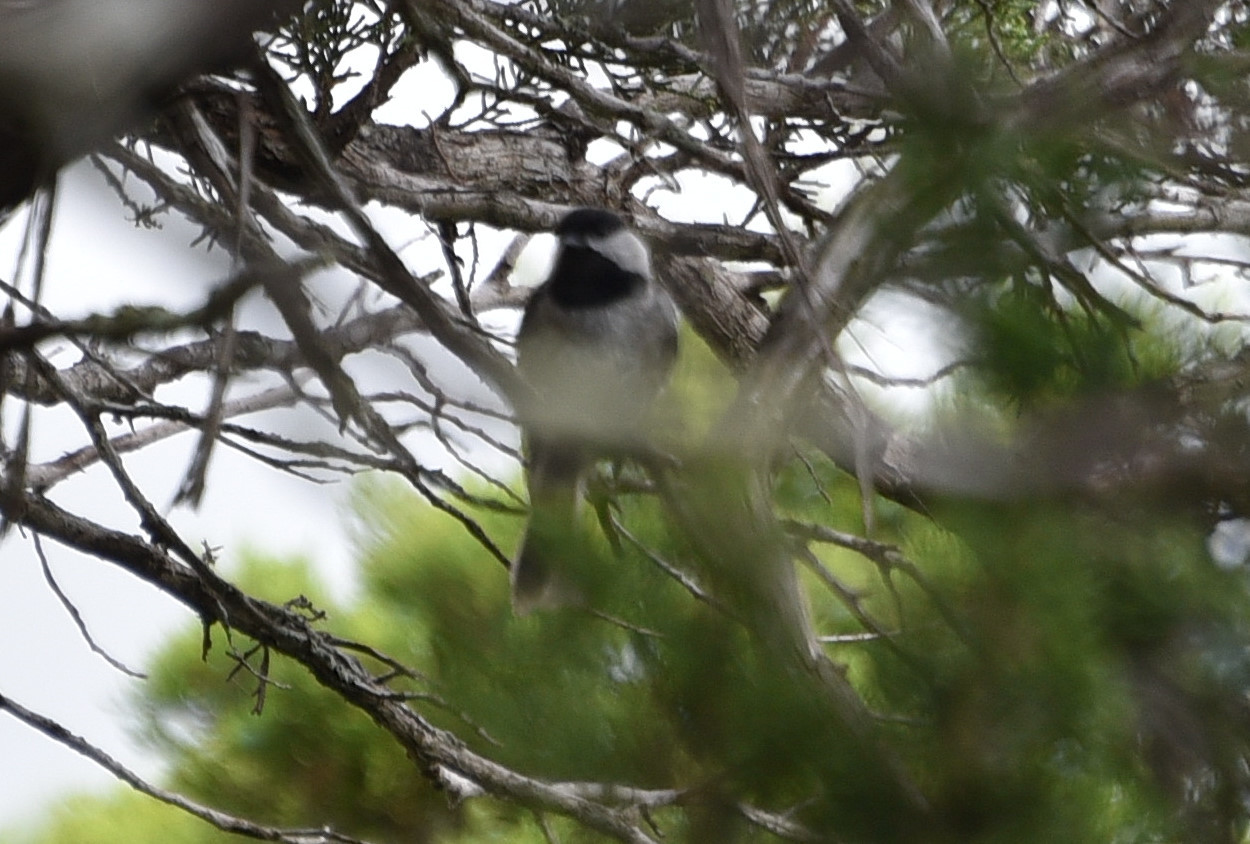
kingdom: Animalia
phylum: Chordata
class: Aves
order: Passeriformes
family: Paridae
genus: Poecile
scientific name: Poecile carolinensis
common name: Carolina chickadee
